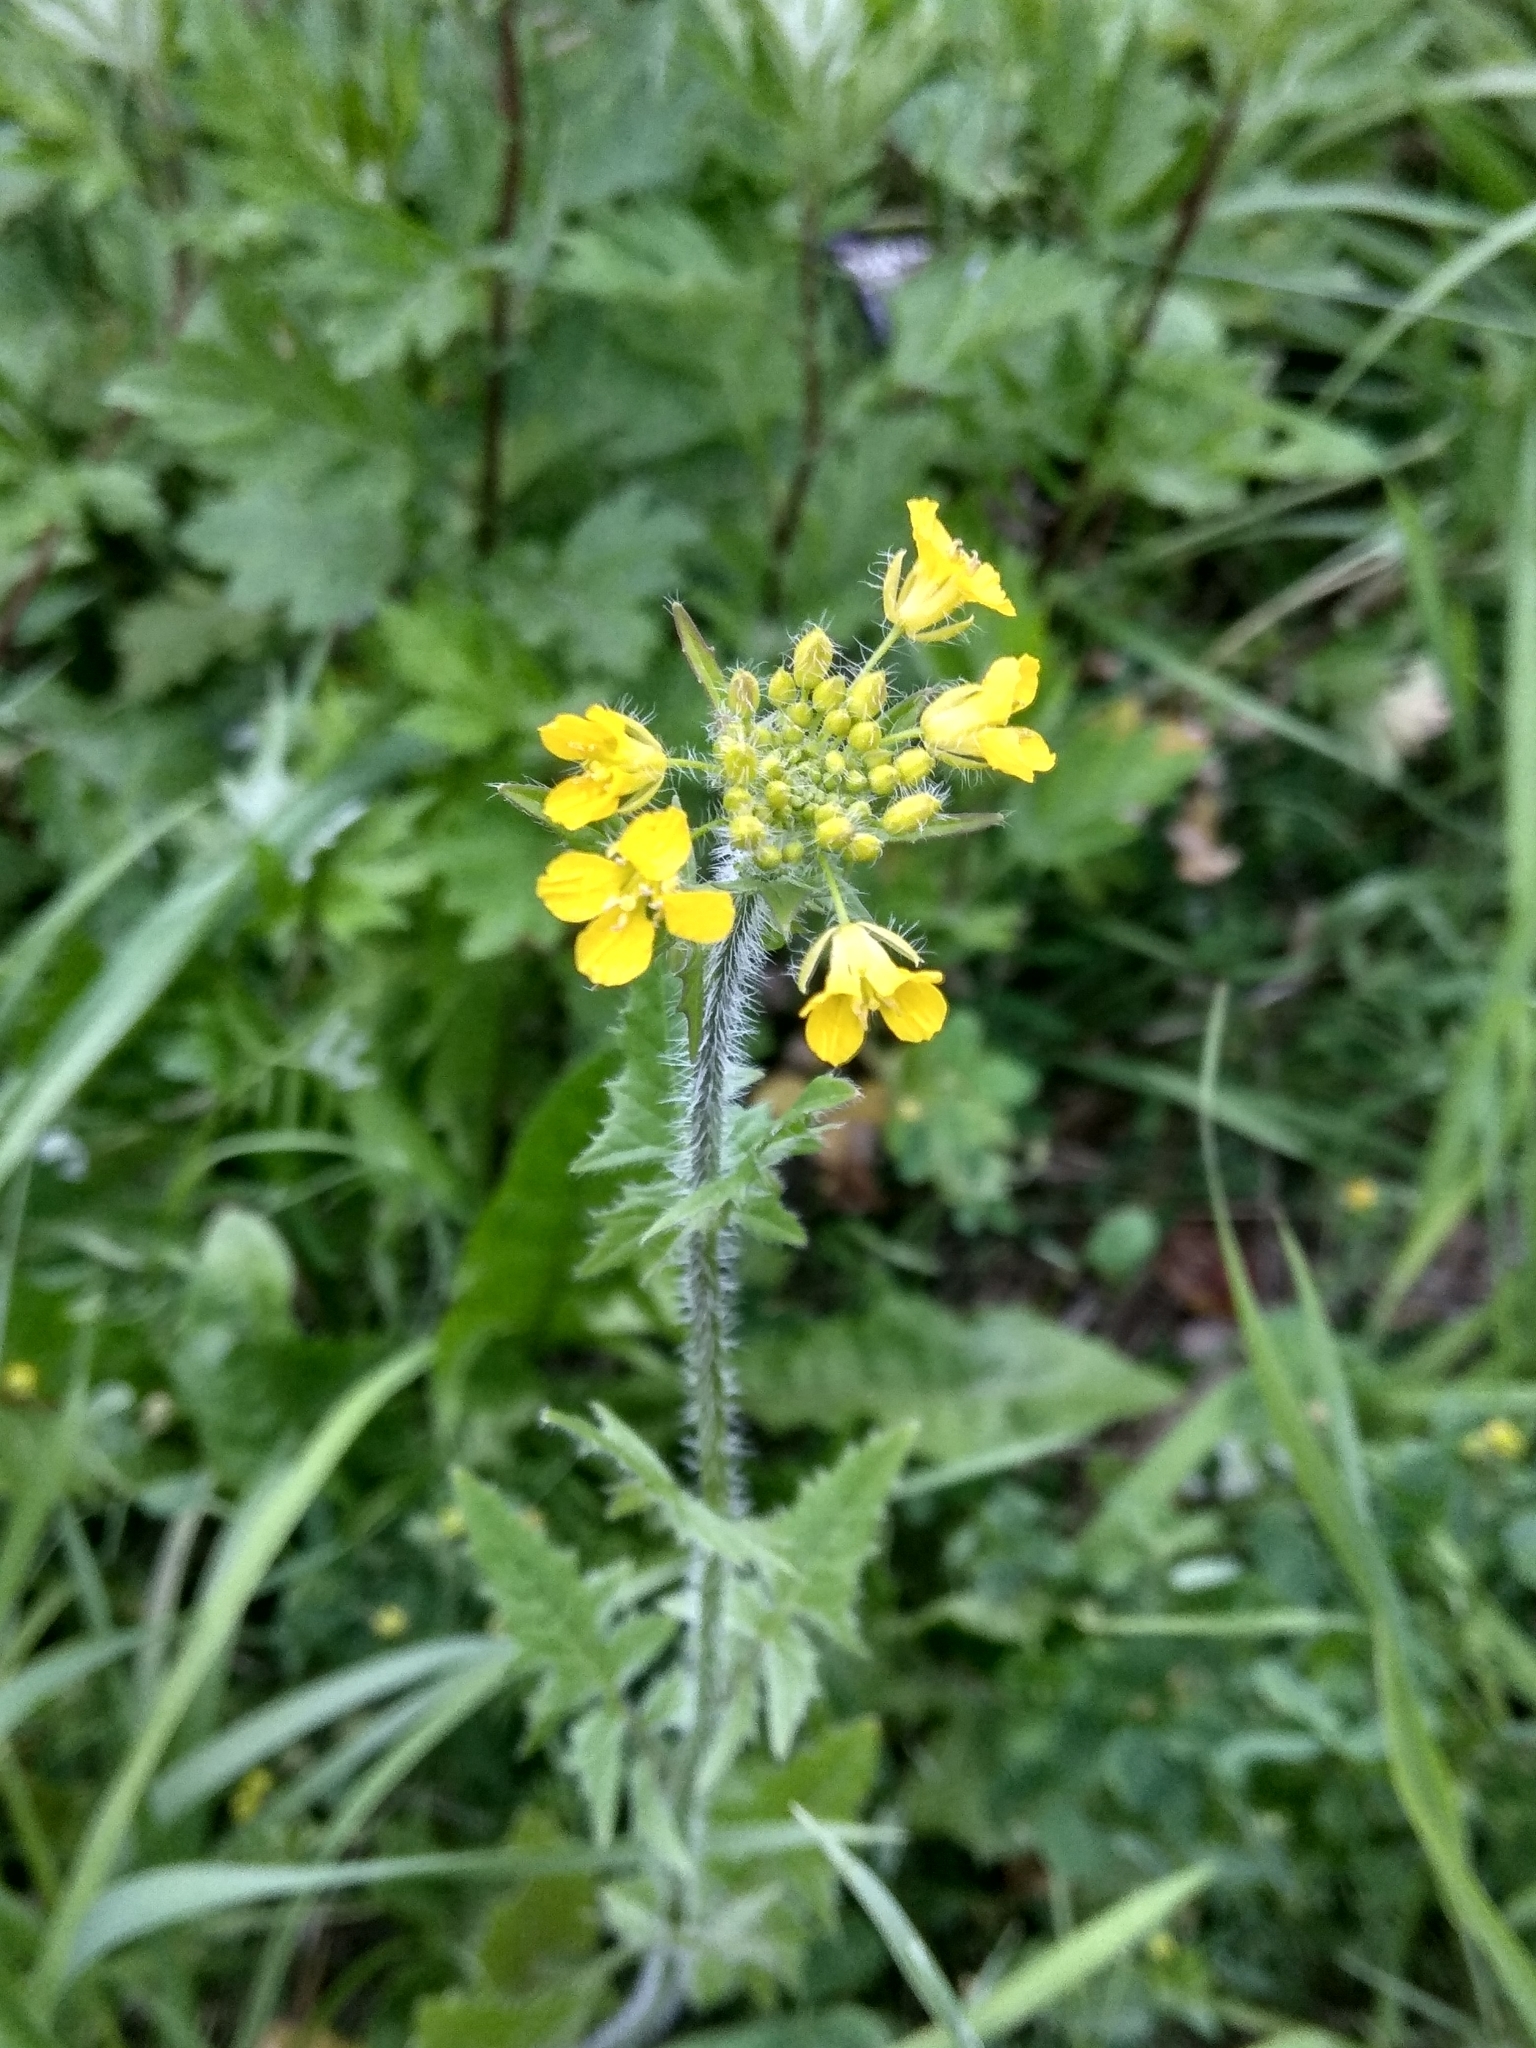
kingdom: Plantae
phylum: Tracheophyta
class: Magnoliopsida
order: Brassicales
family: Brassicaceae
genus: Sisymbrium
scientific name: Sisymbrium loeselii
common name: False london-rocket
